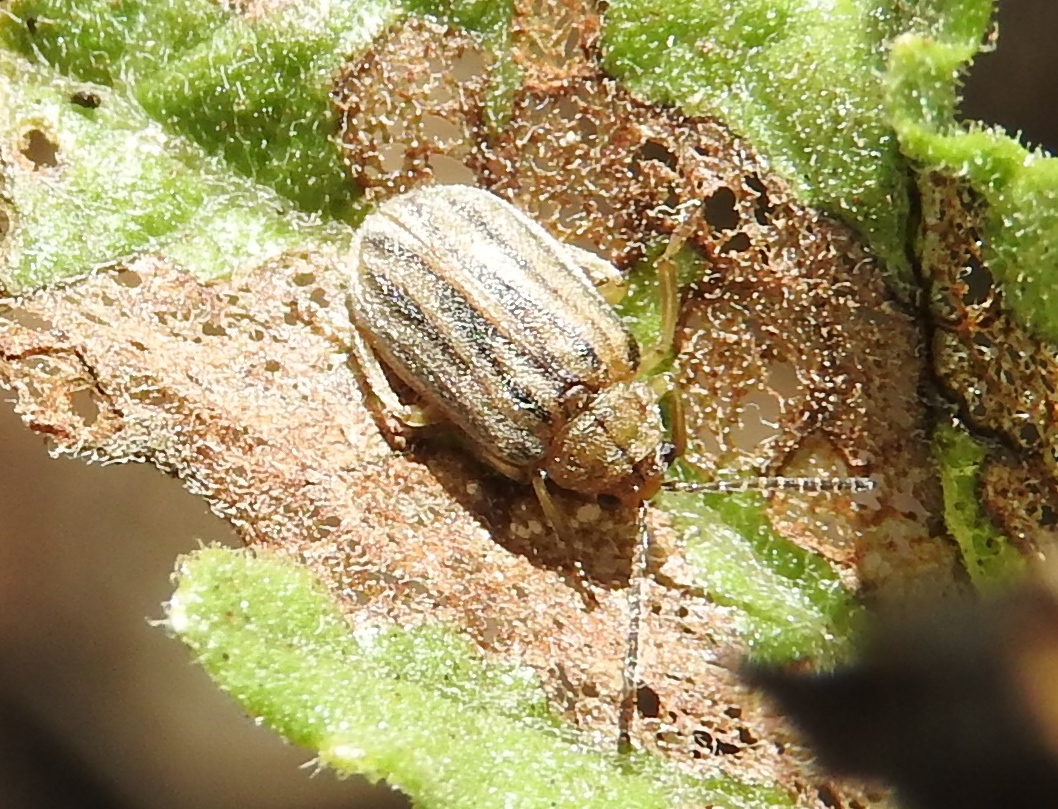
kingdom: Animalia
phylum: Arthropoda
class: Insecta
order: Coleoptera
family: Chrysomelidae
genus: Ophraella
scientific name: Ophraella
